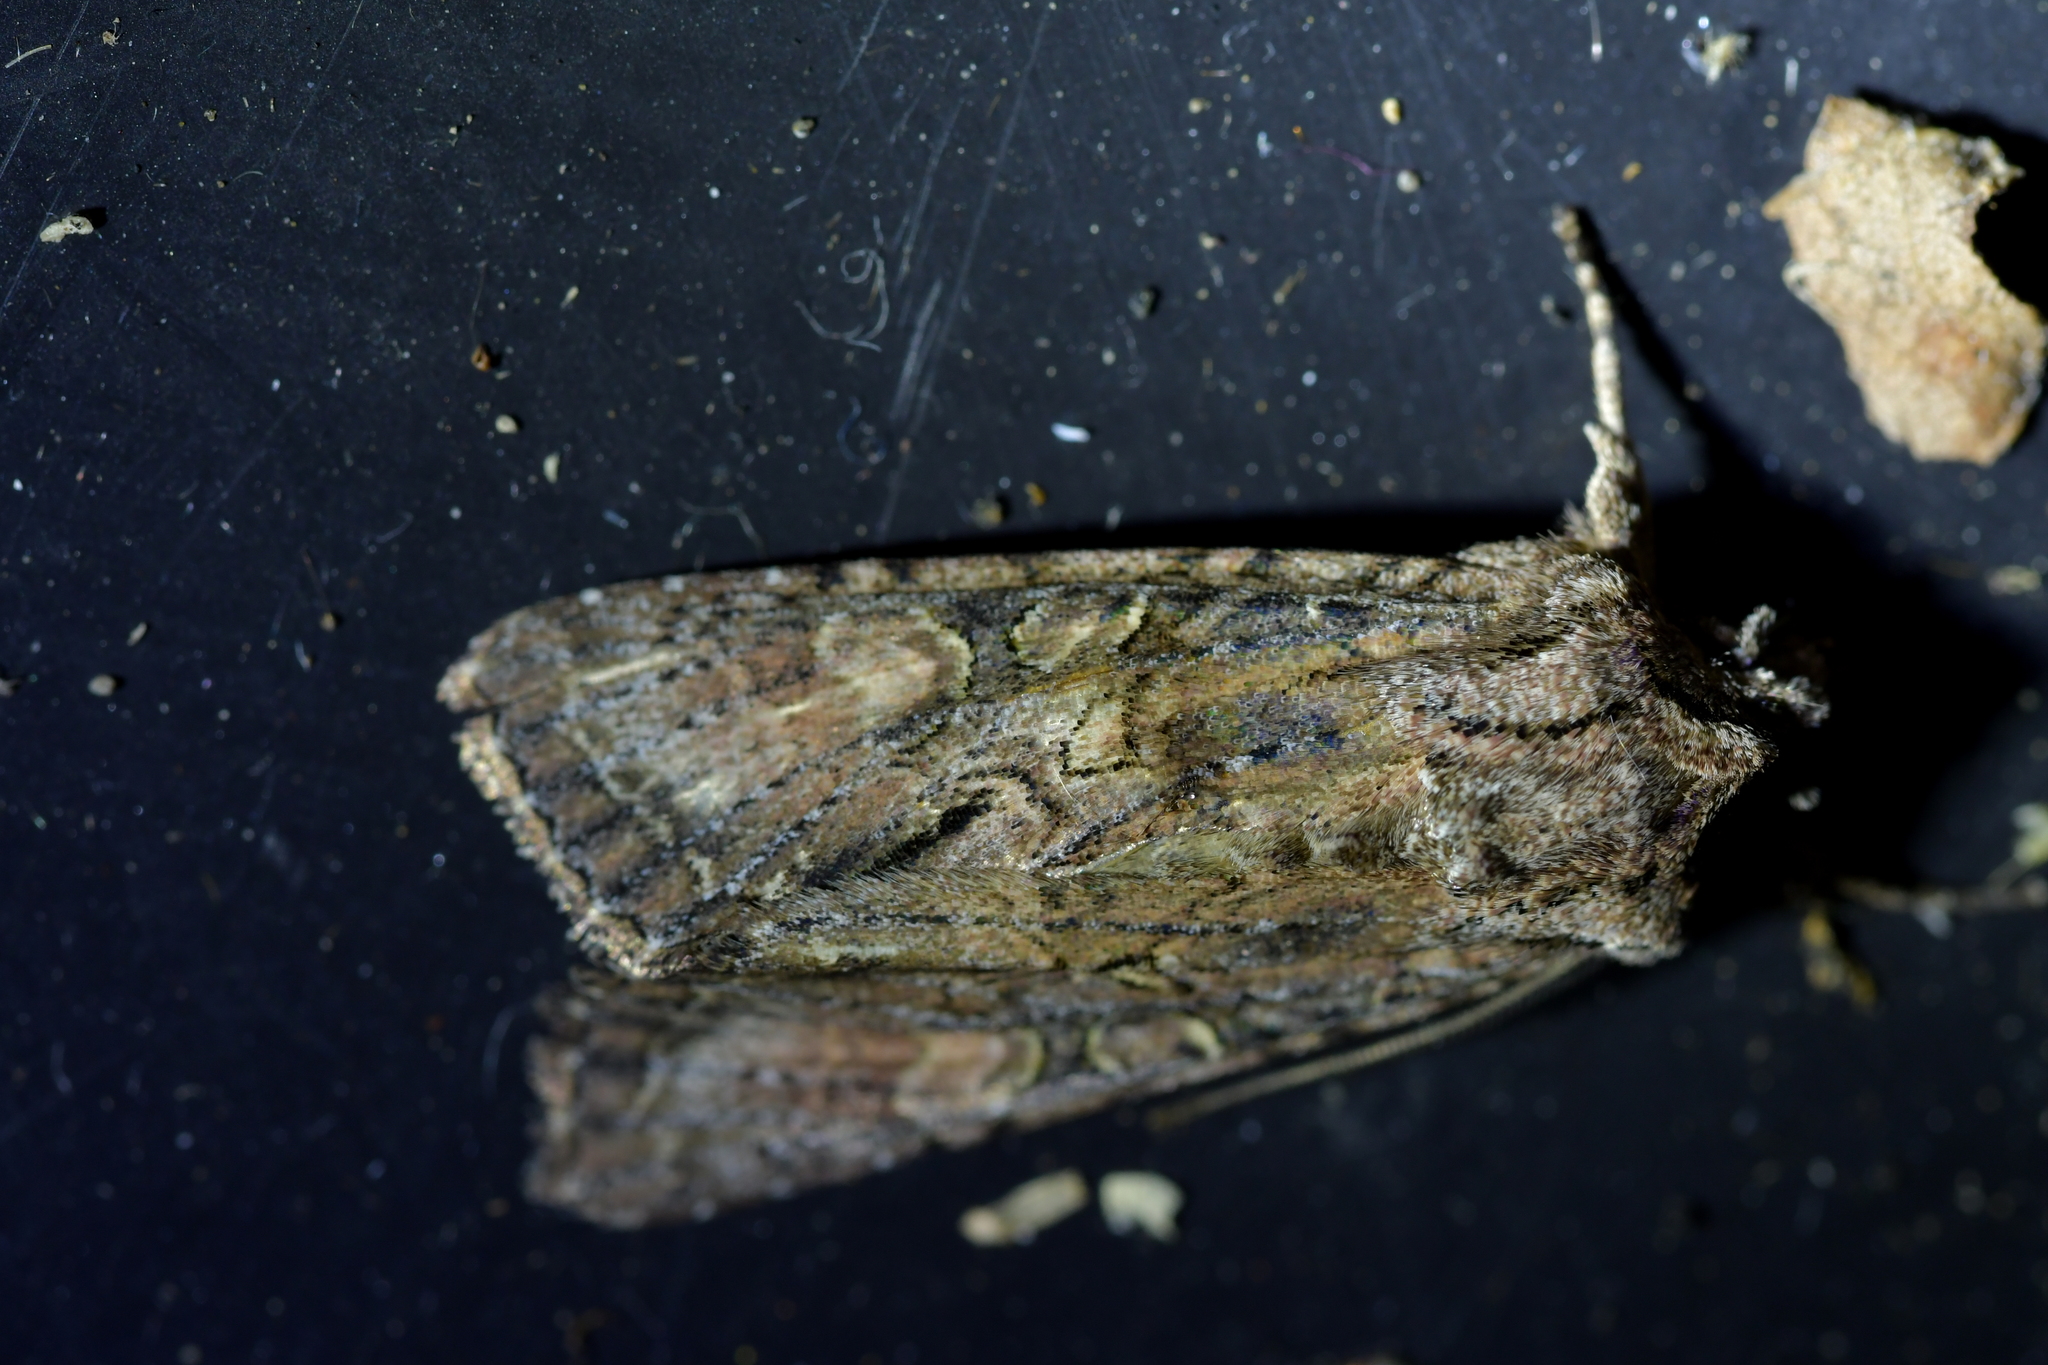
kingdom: Animalia
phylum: Arthropoda
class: Insecta
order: Lepidoptera
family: Noctuidae
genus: Ichneutica
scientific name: Ichneutica mutans
